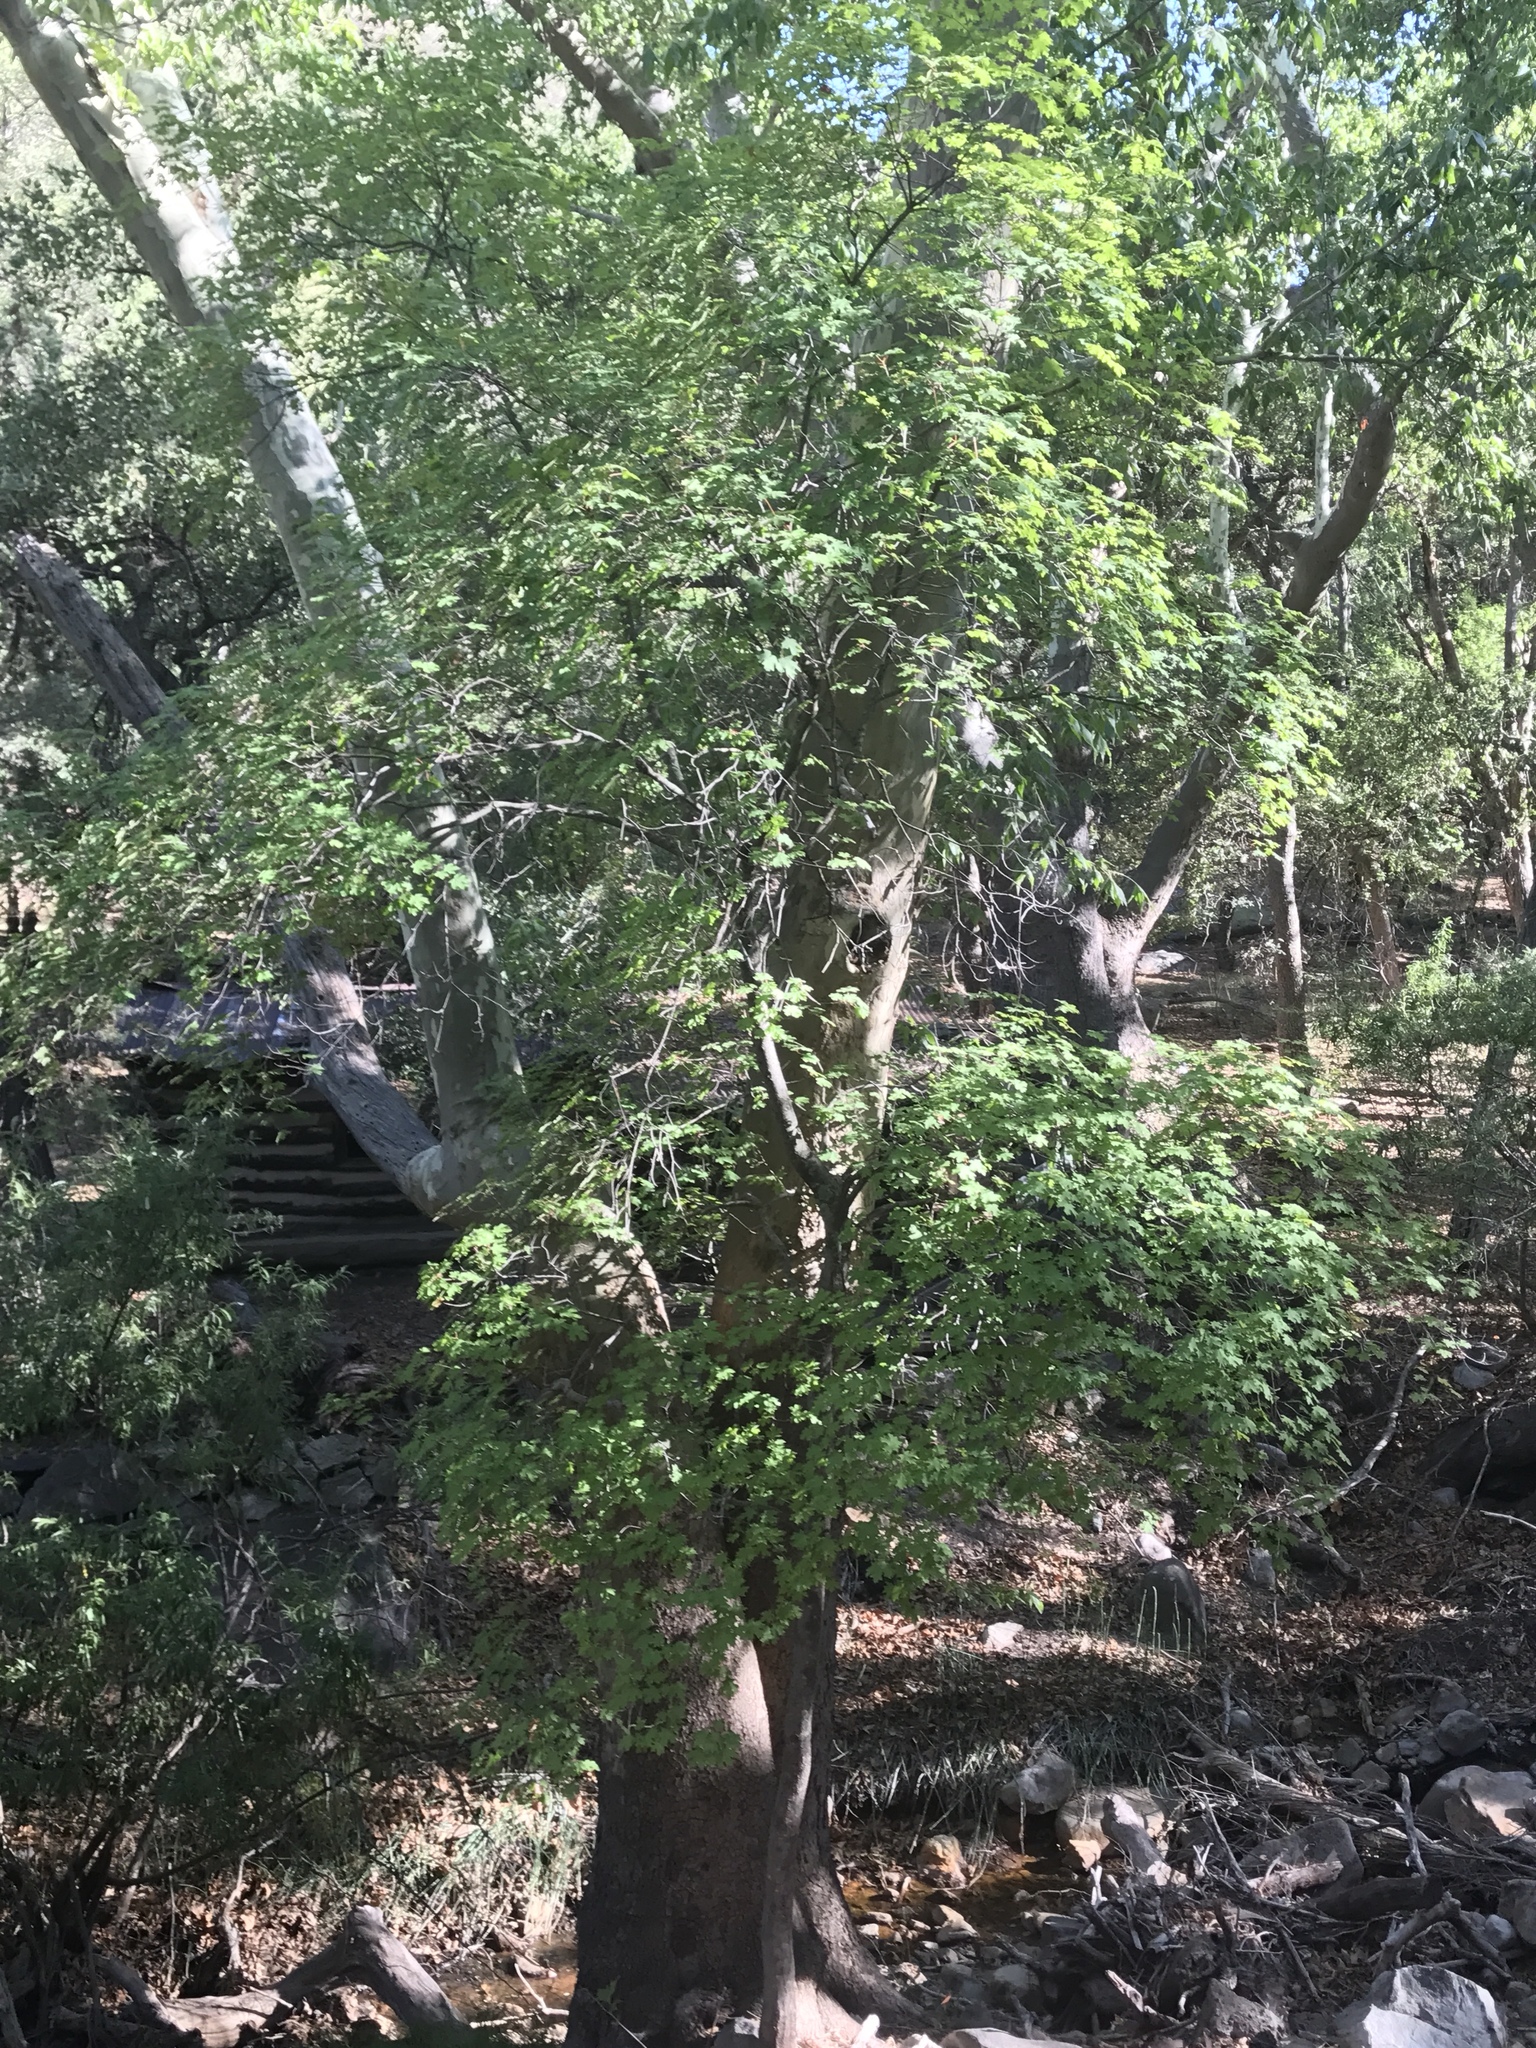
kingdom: Plantae
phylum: Tracheophyta
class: Magnoliopsida
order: Sapindales
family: Sapindaceae
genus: Acer
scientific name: Acer grandidentatum
